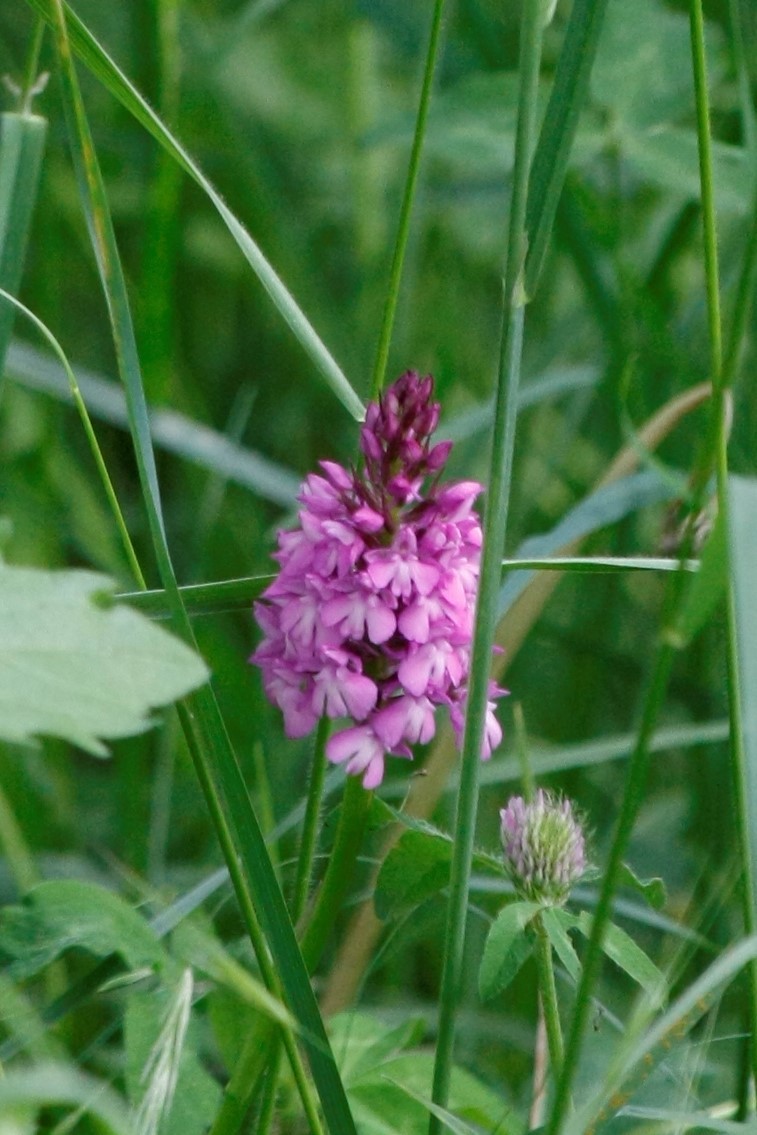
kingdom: Plantae
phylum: Tracheophyta
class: Liliopsida
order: Asparagales
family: Orchidaceae
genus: Anacamptis
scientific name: Anacamptis pyramidalis
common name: Pyramidal orchid
